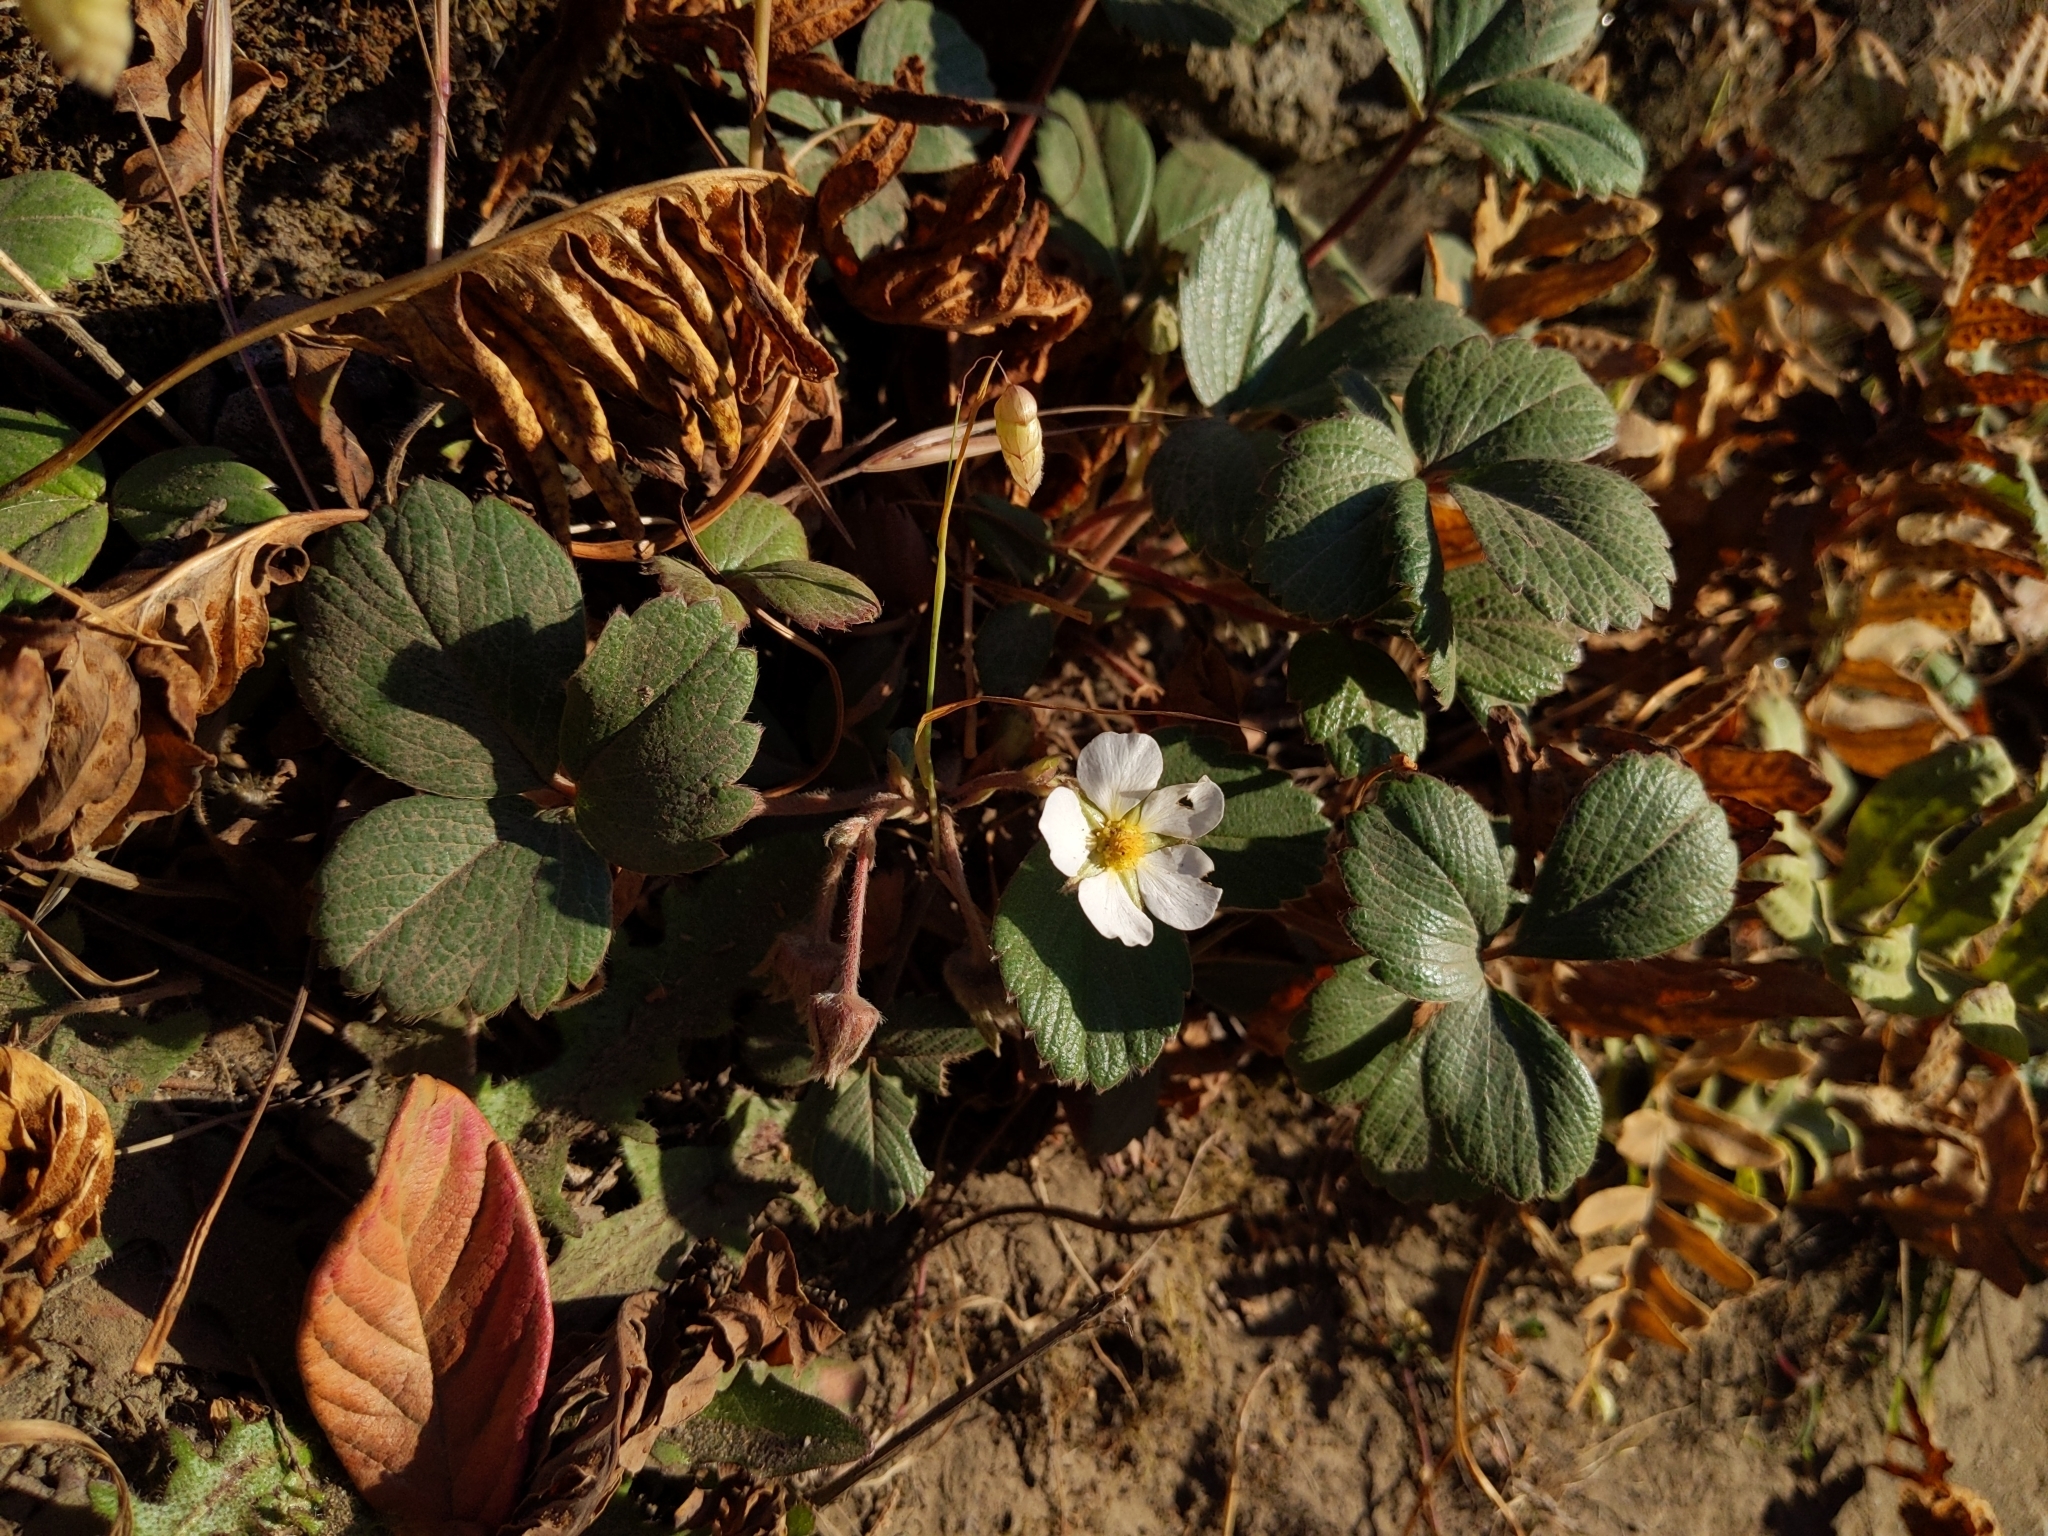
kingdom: Plantae
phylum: Tracheophyta
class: Magnoliopsida
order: Rosales
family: Rosaceae
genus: Fragaria
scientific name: Fragaria chiloensis
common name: Beach strawberry
